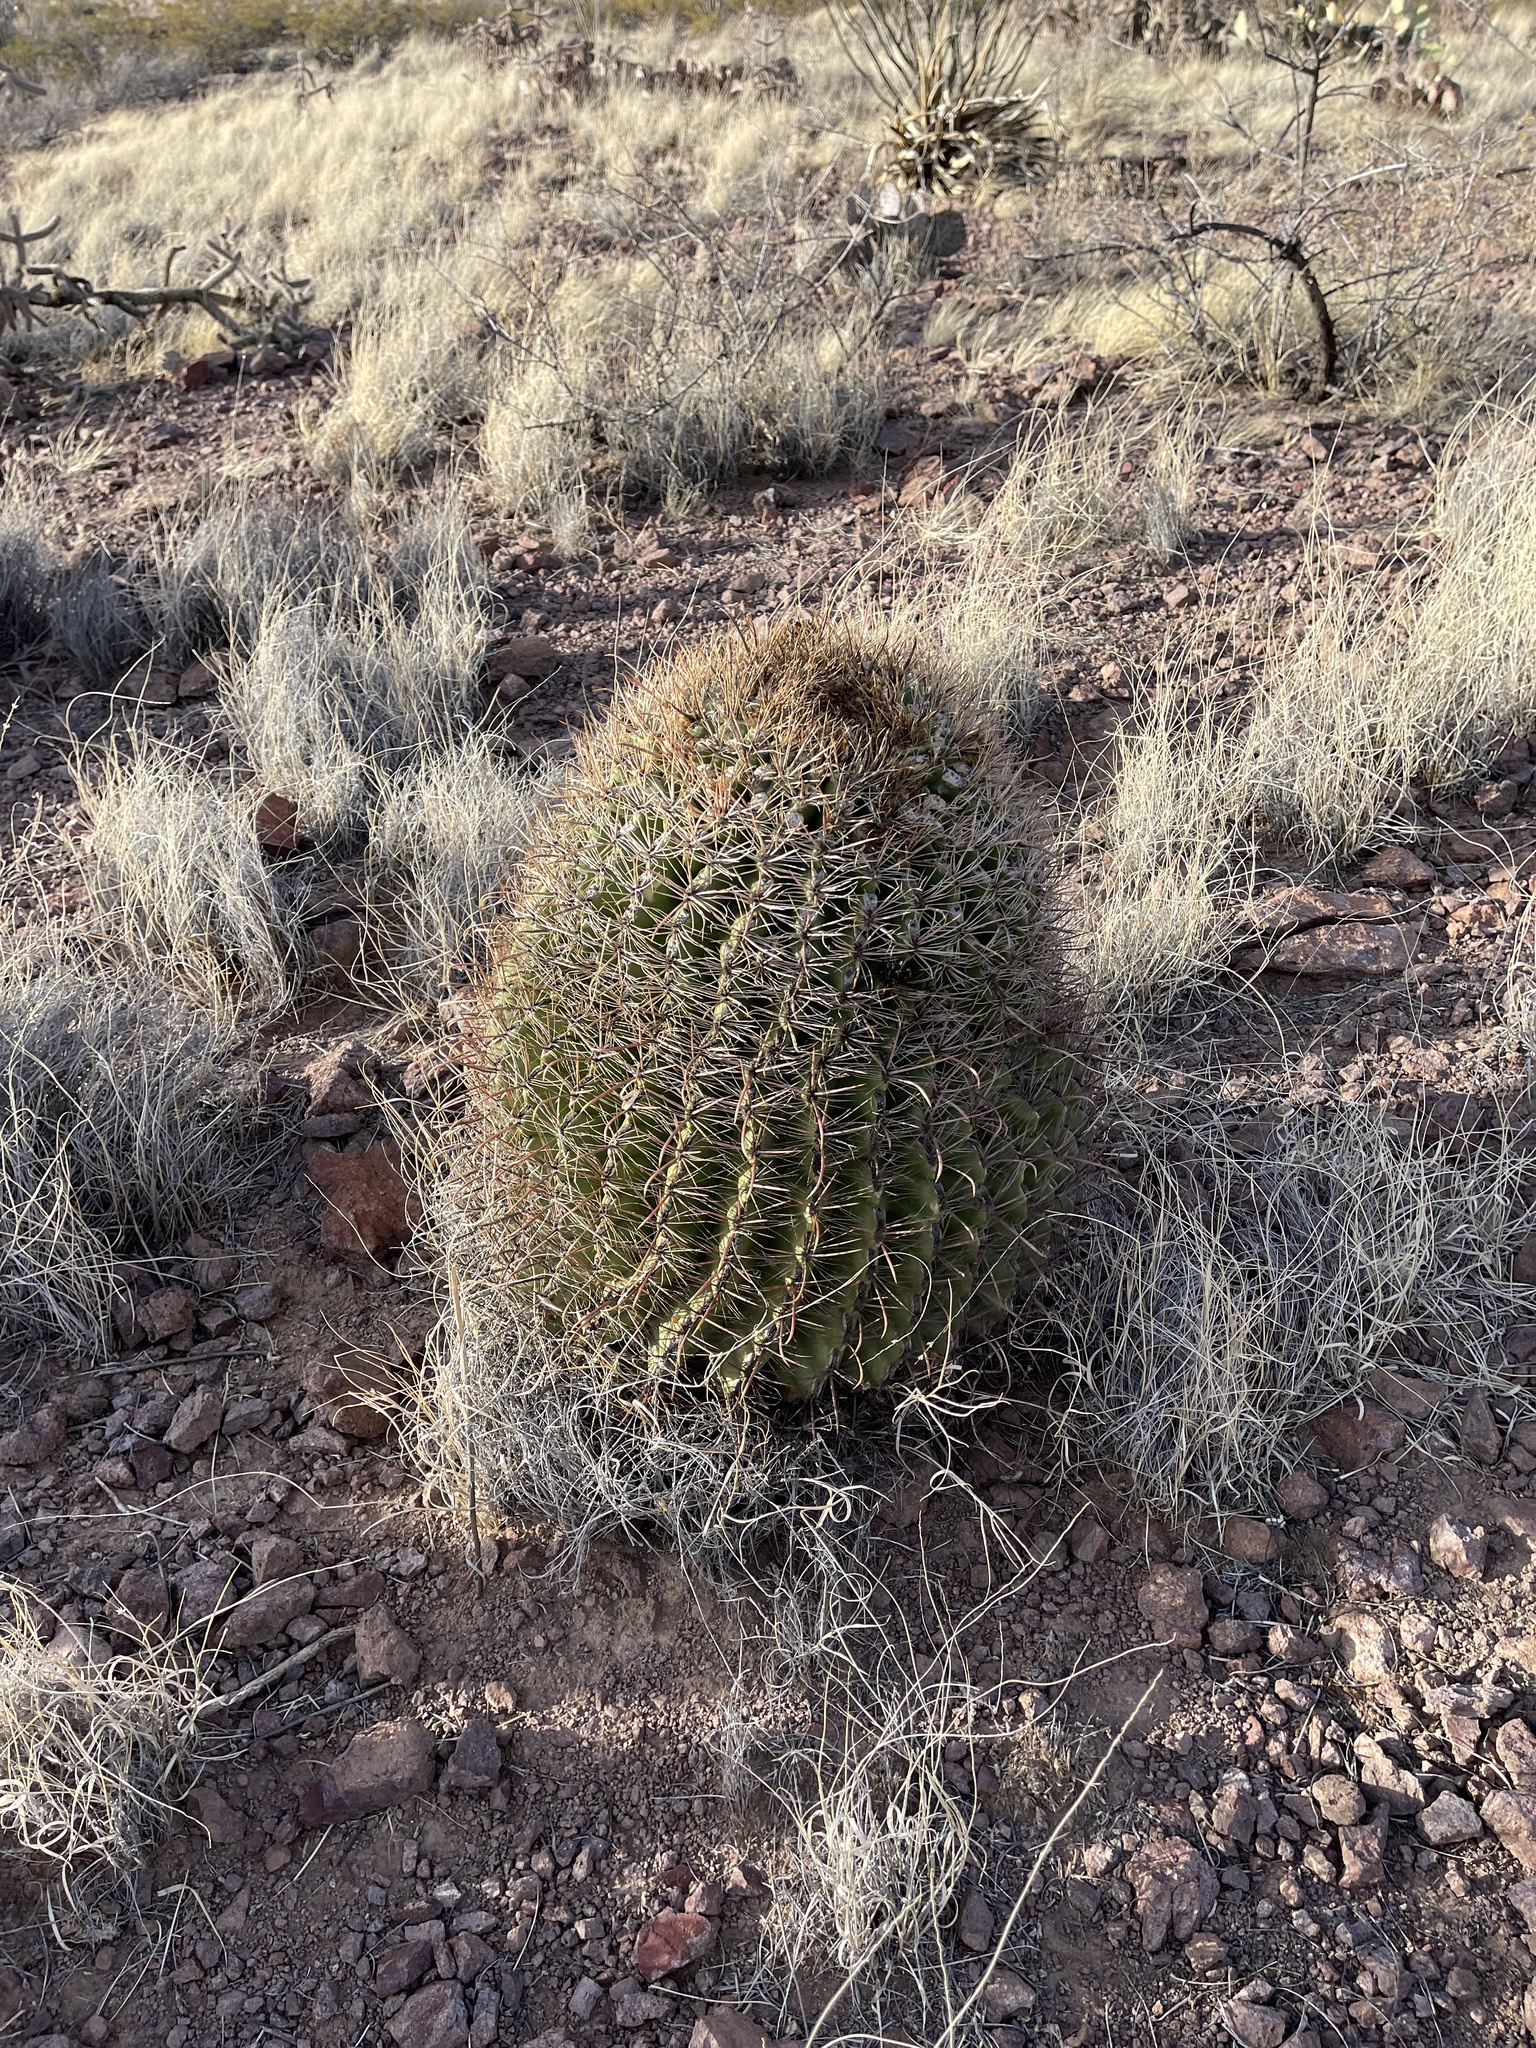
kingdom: Plantae
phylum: Tracheophyta
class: Magnoliopsida
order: Caryophyllales
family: Cactaceae
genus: Ferocactus
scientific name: Ferocactus wislizeni
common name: Candy barrel cactus
